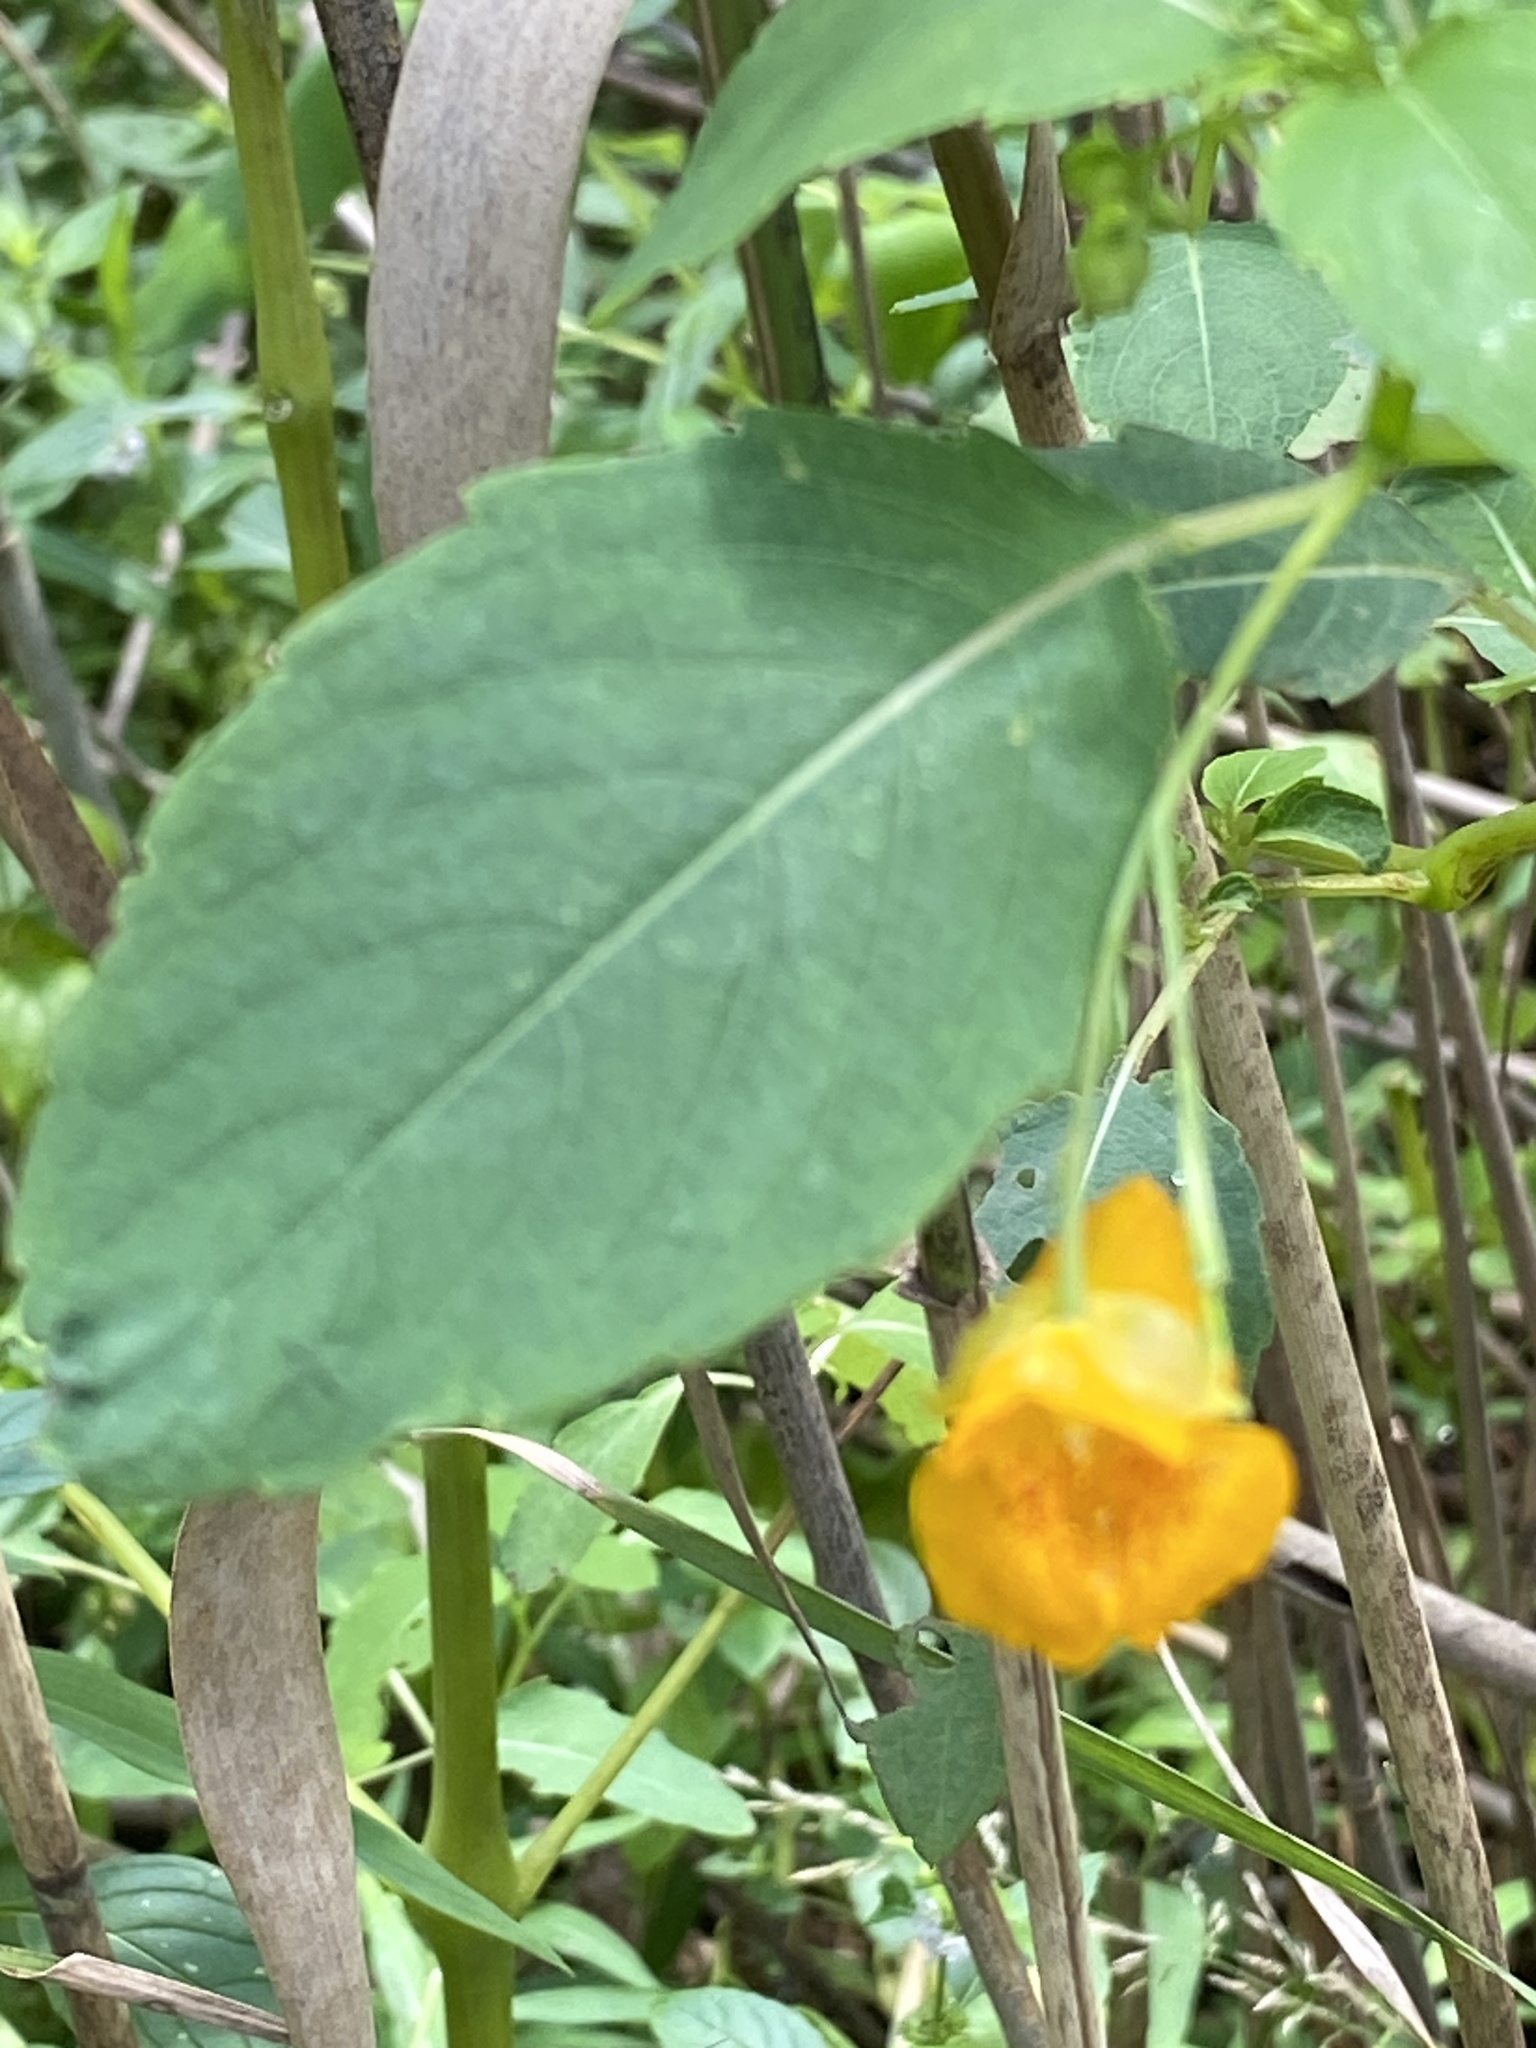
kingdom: Plantae
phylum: Tracheophyta
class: Magnoliopsida
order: Ericales
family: Balsaminaceae
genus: Impatiens
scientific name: Impatiens capensis
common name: Orange balsam
